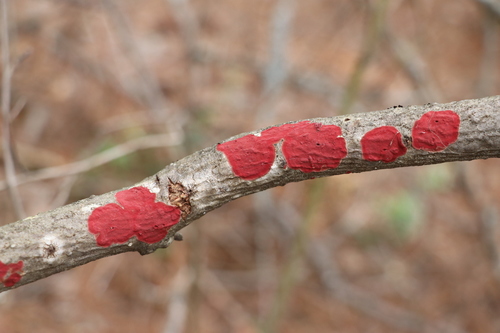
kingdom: Fungi
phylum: Basidiomycota
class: Agaricomycetes
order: Hymenochaetales
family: Hymenochaetaceae
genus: Hymenochaete
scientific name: Hymenochaete cruenta
